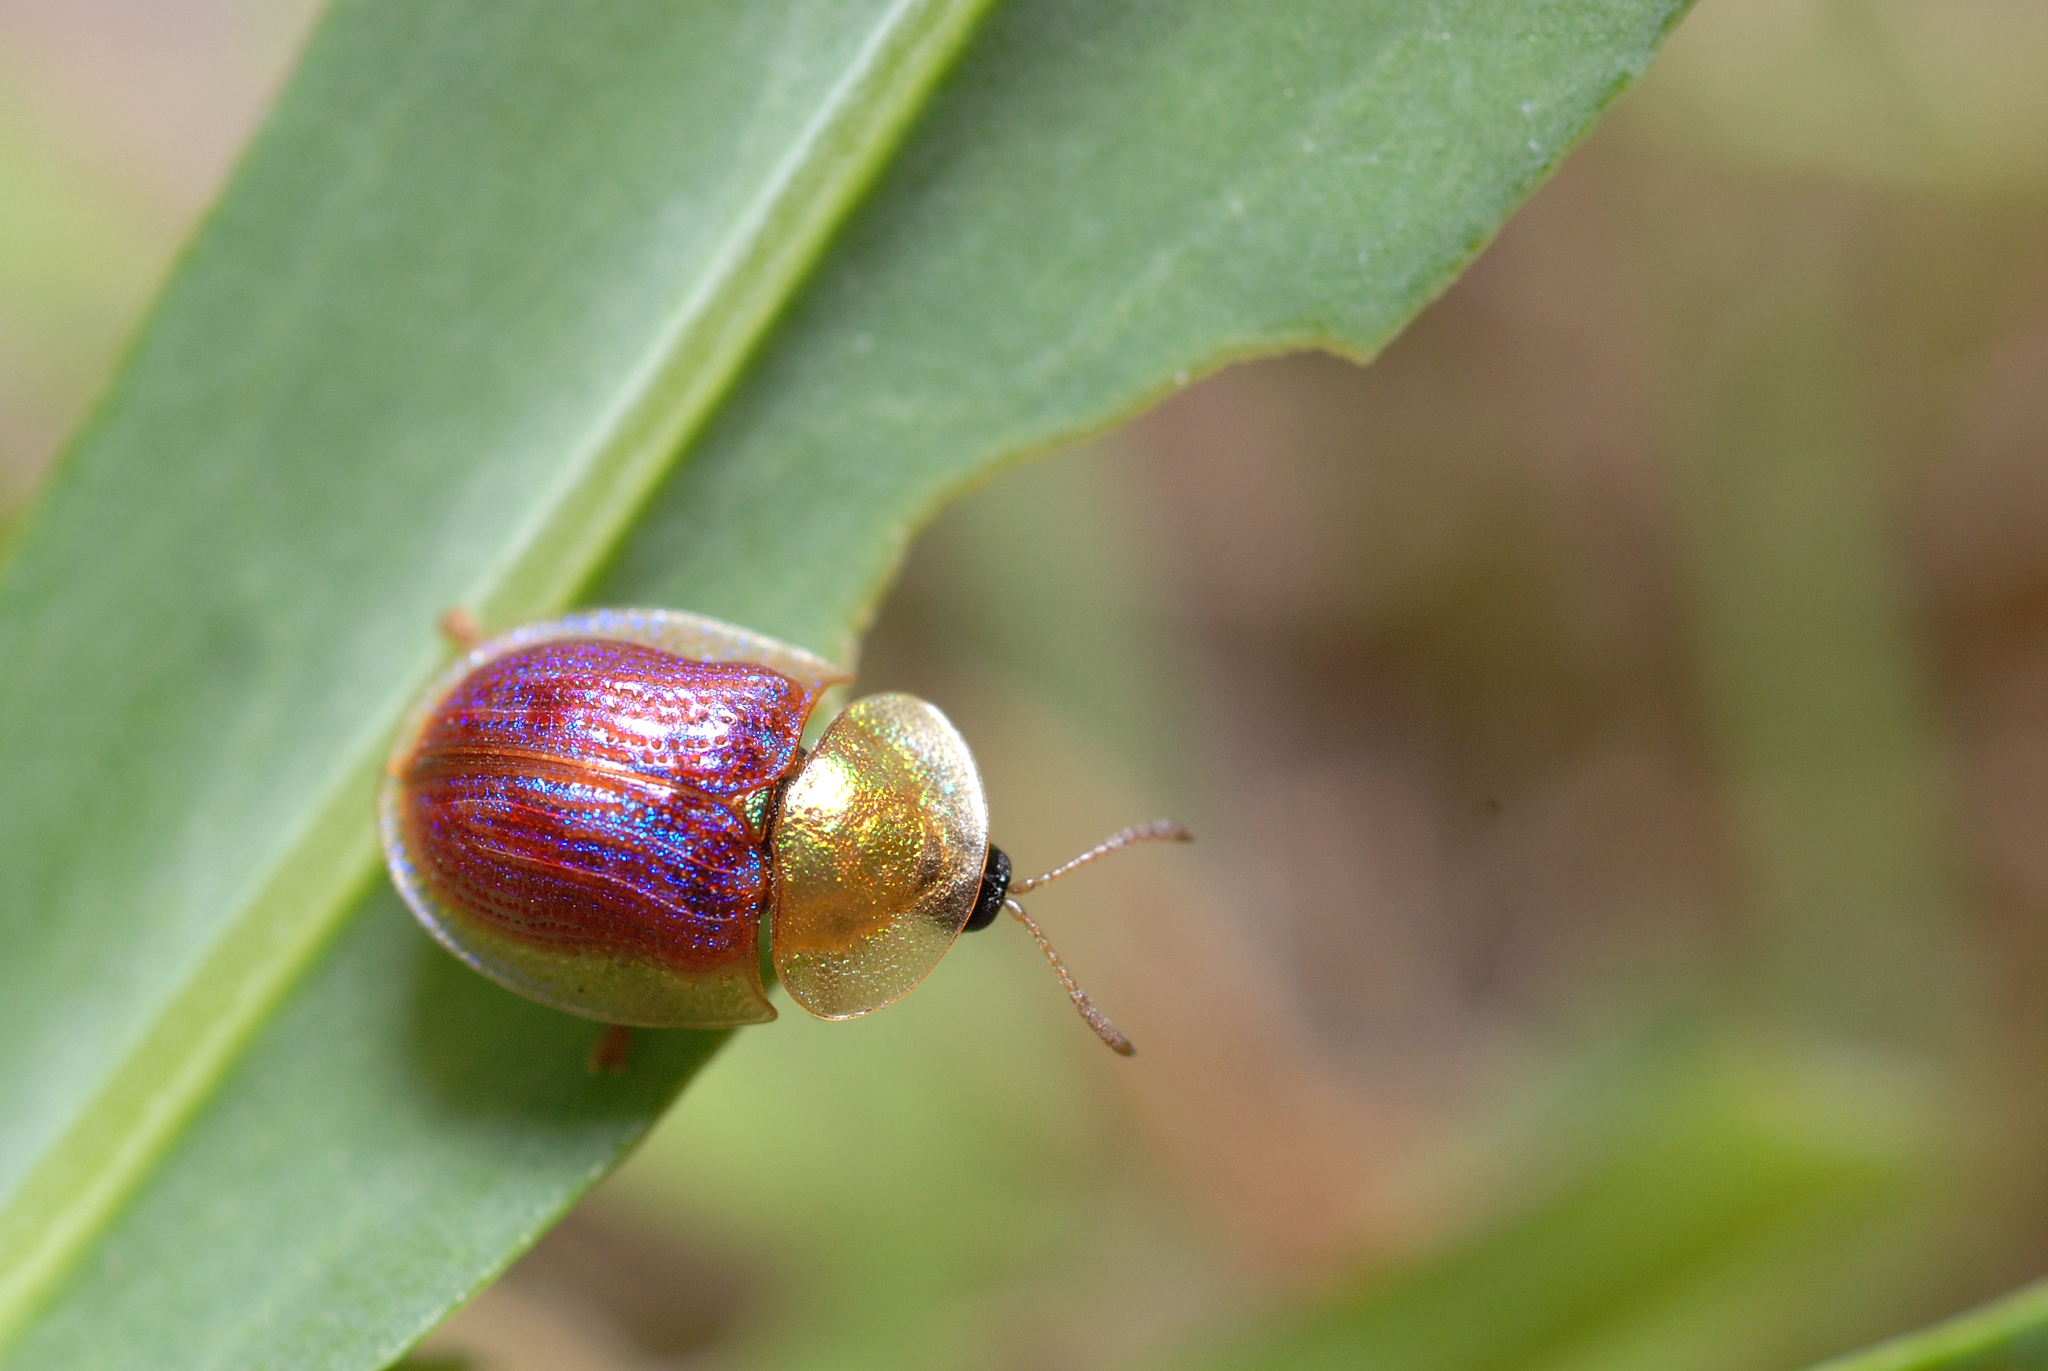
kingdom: Animalia
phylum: Arthropoda
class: Insecta
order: Coleoptera
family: Chrysomelidae
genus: Cassida
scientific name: Cassida azurea
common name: Rainbow tortoise beetle
